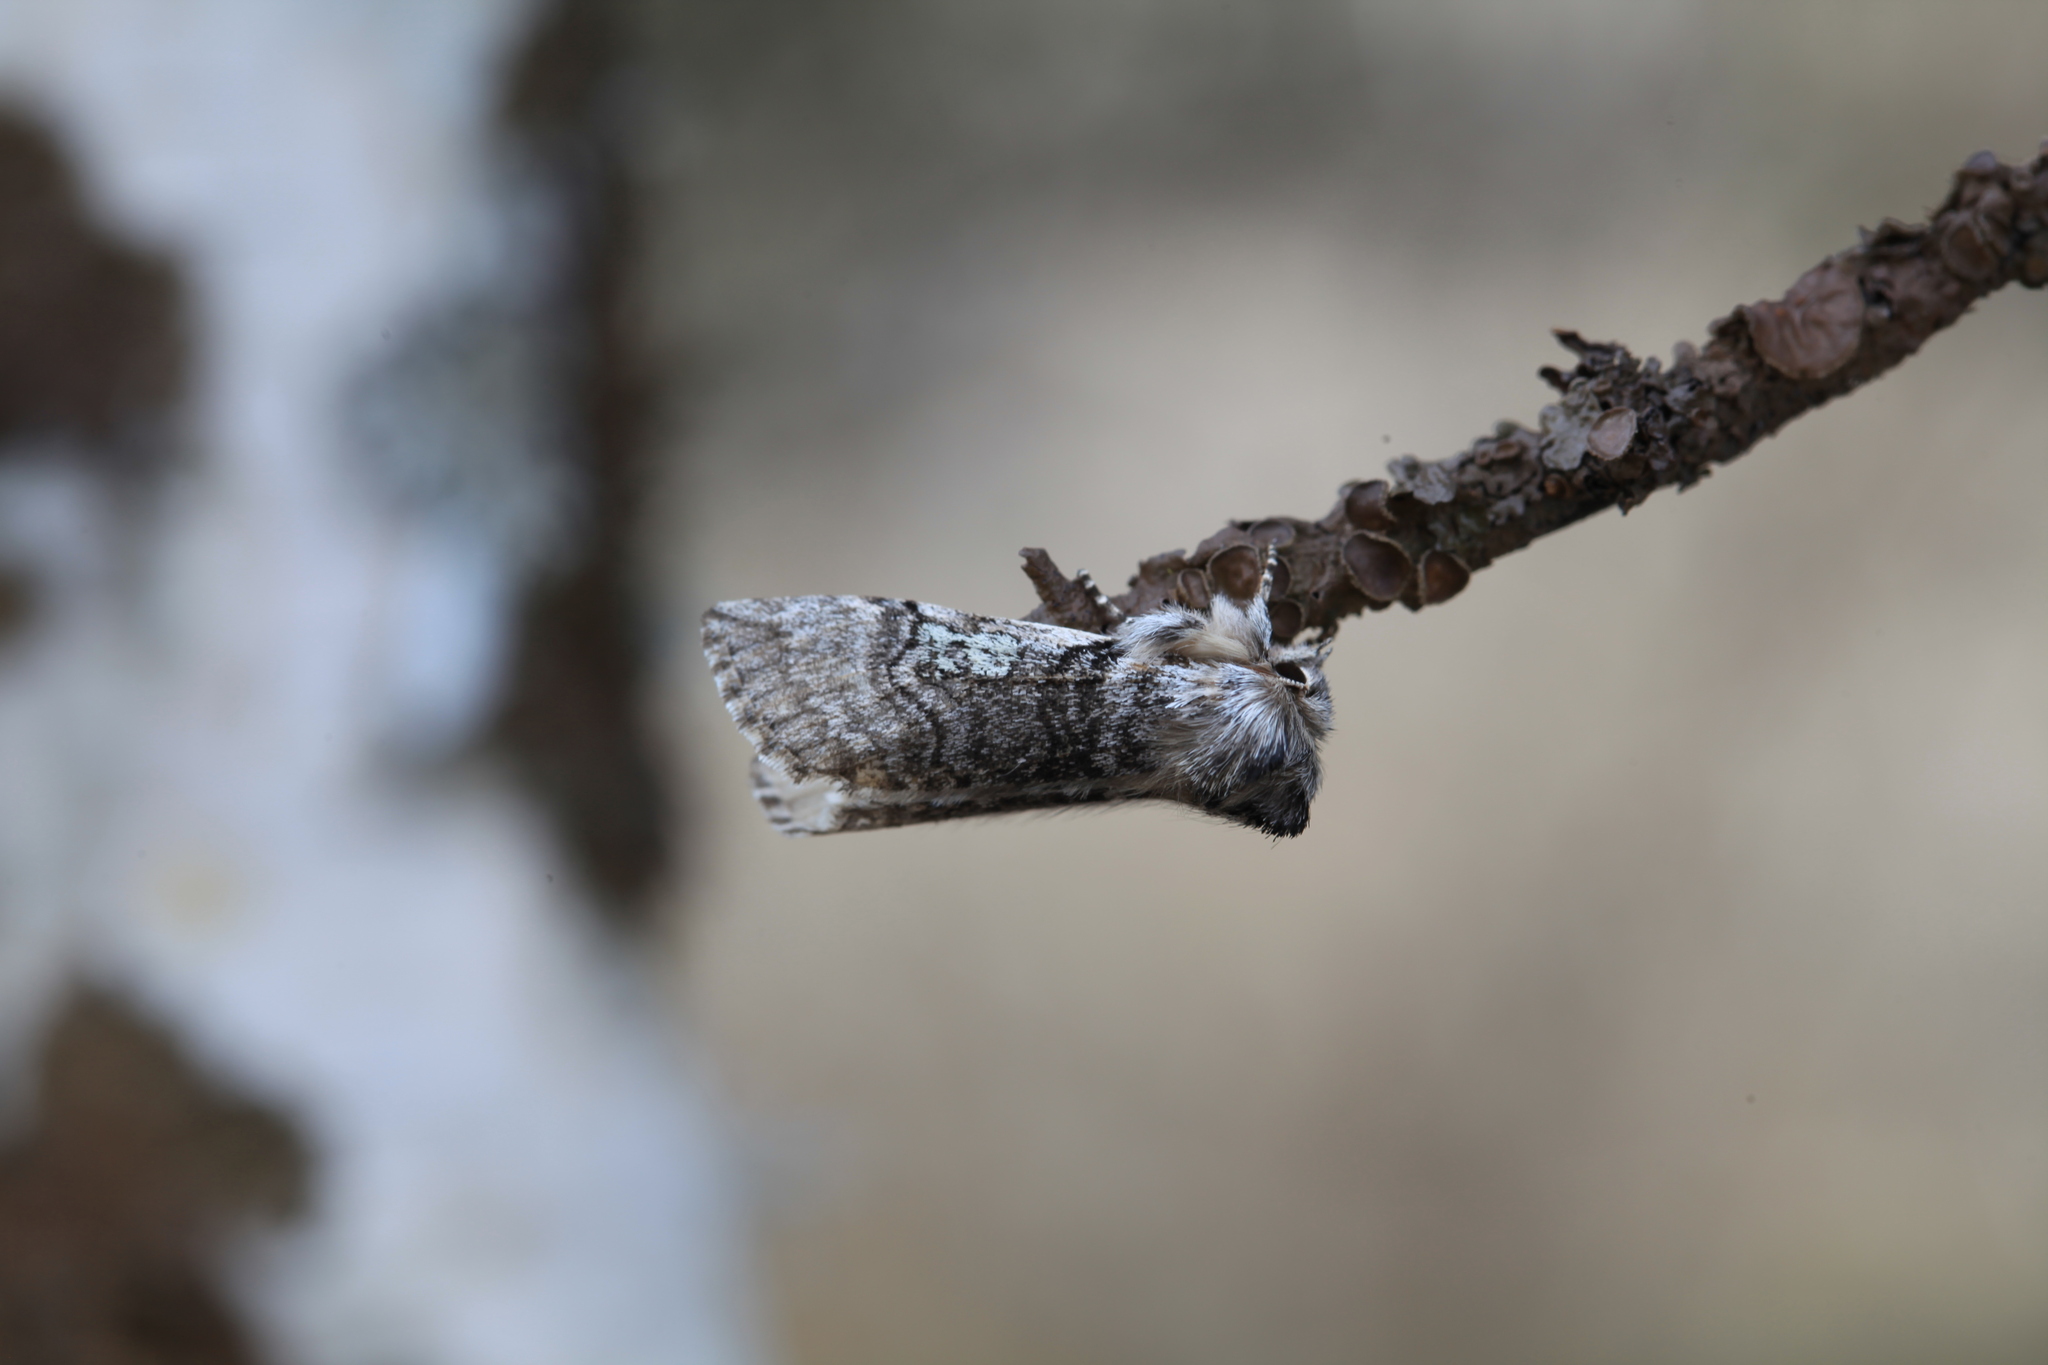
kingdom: Animalia
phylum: Arthropoda
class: Insecta
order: Lepidoptera
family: Drepanidae
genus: Achlya
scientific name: Achlya flavicornis
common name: Yellow horned
